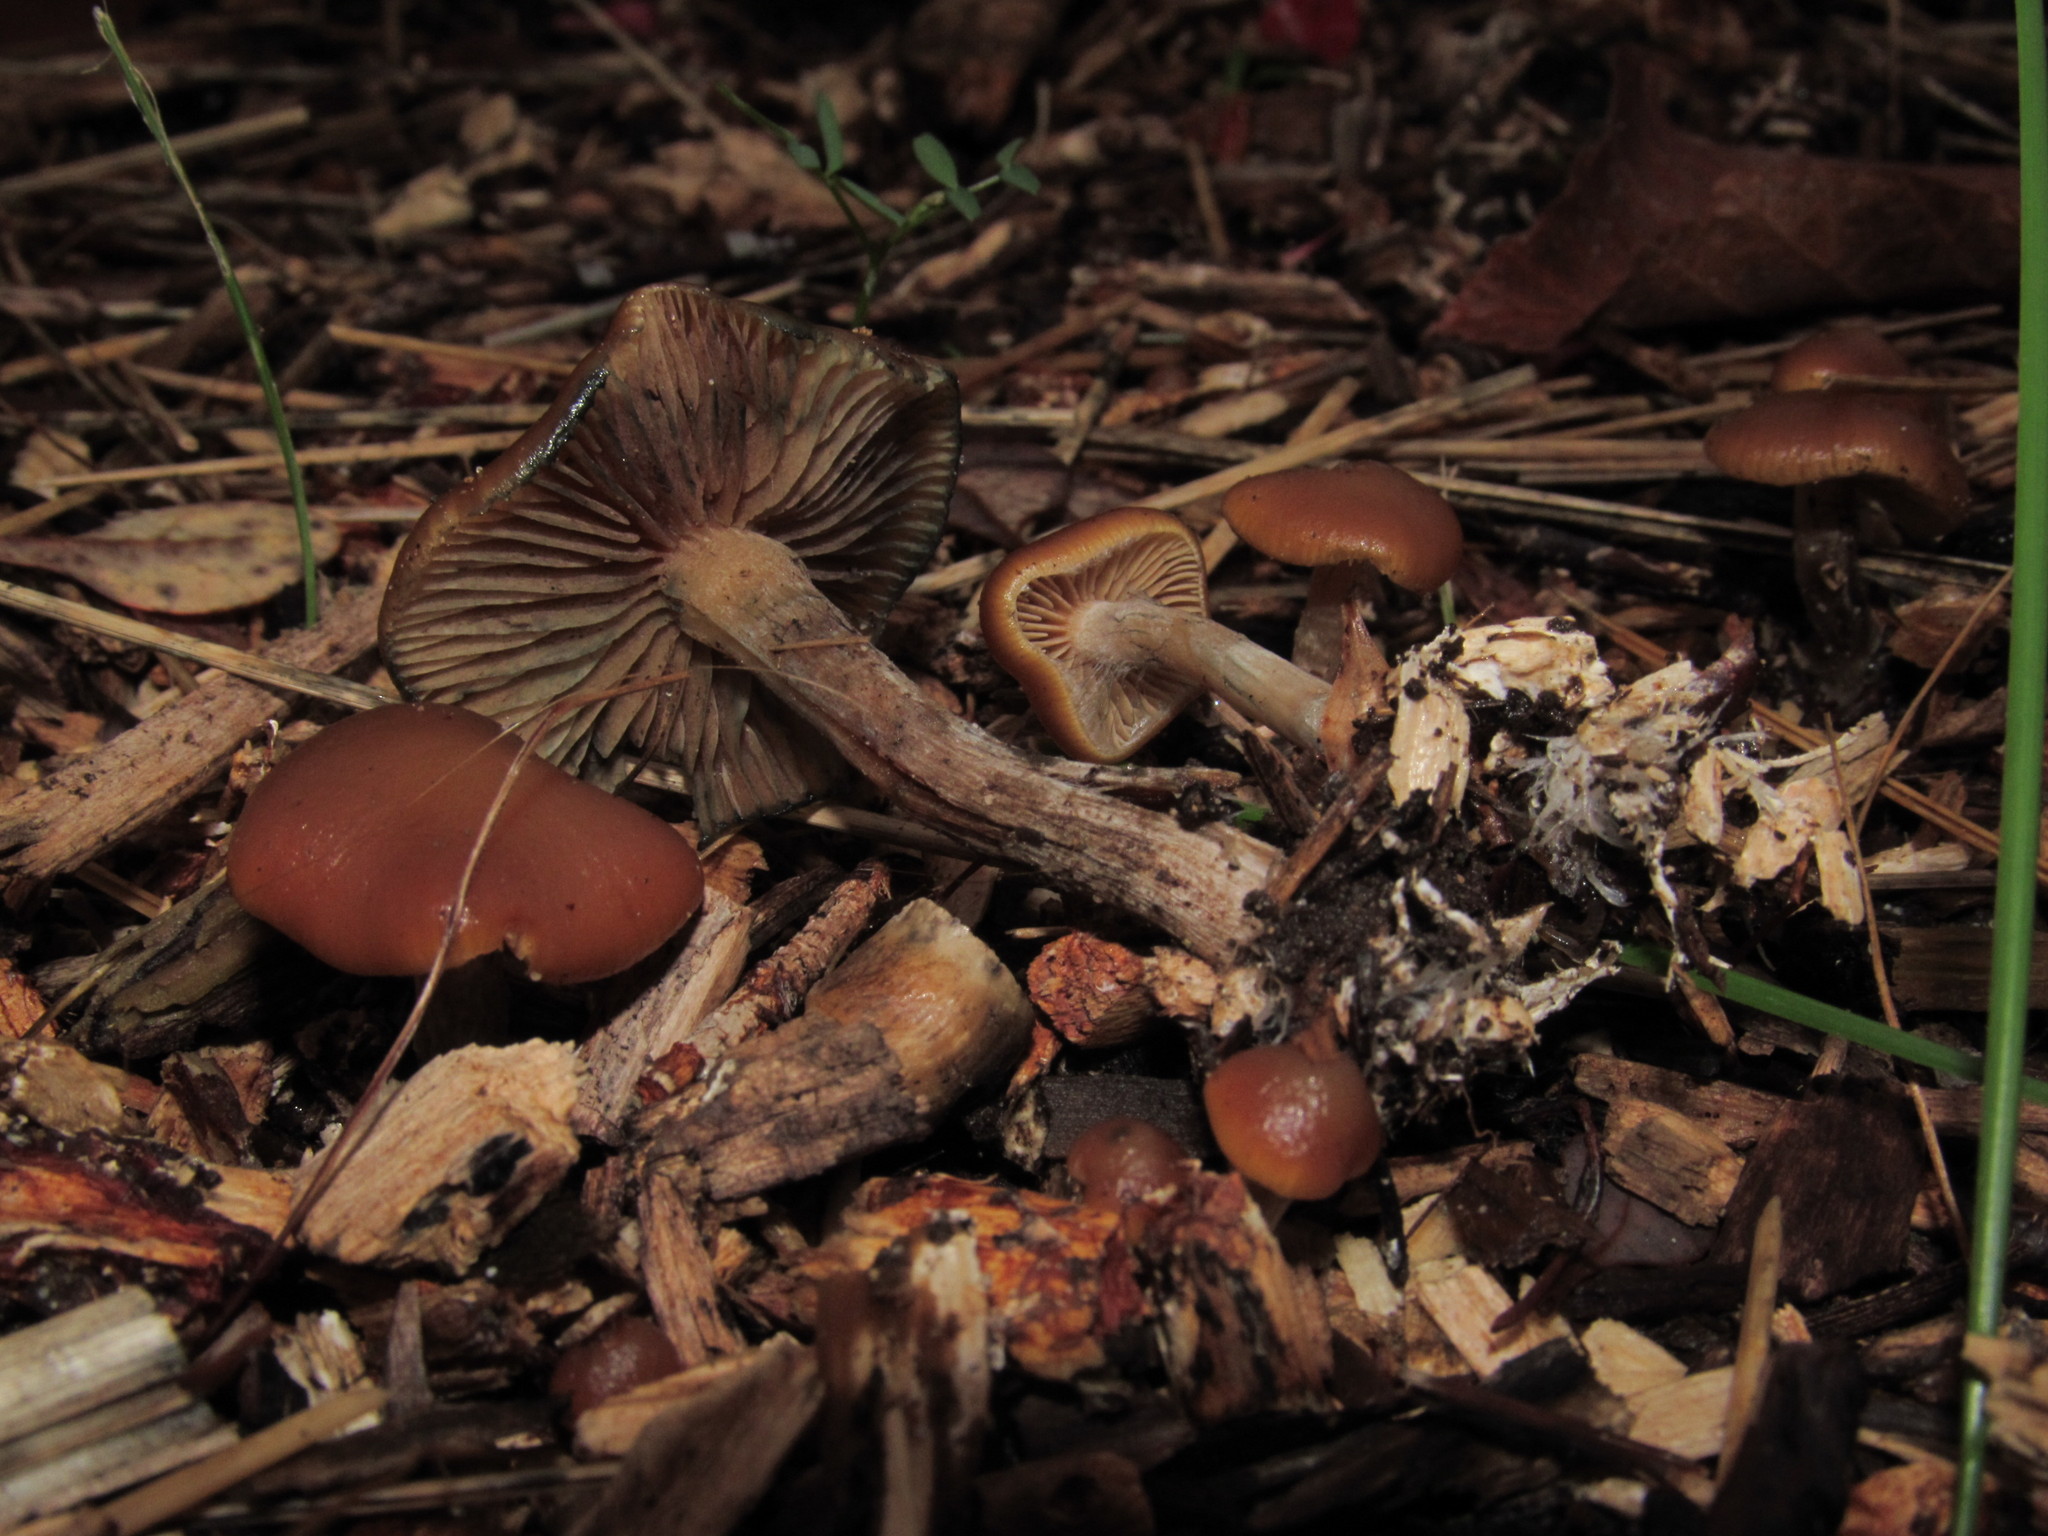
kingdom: Fungi
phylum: Basidiomycota
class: Agaricomycetes
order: Agaricales
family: Hymenogastraceae
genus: Psilocybe
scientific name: Psilocybe cyanescens
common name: Blueleg brownie
